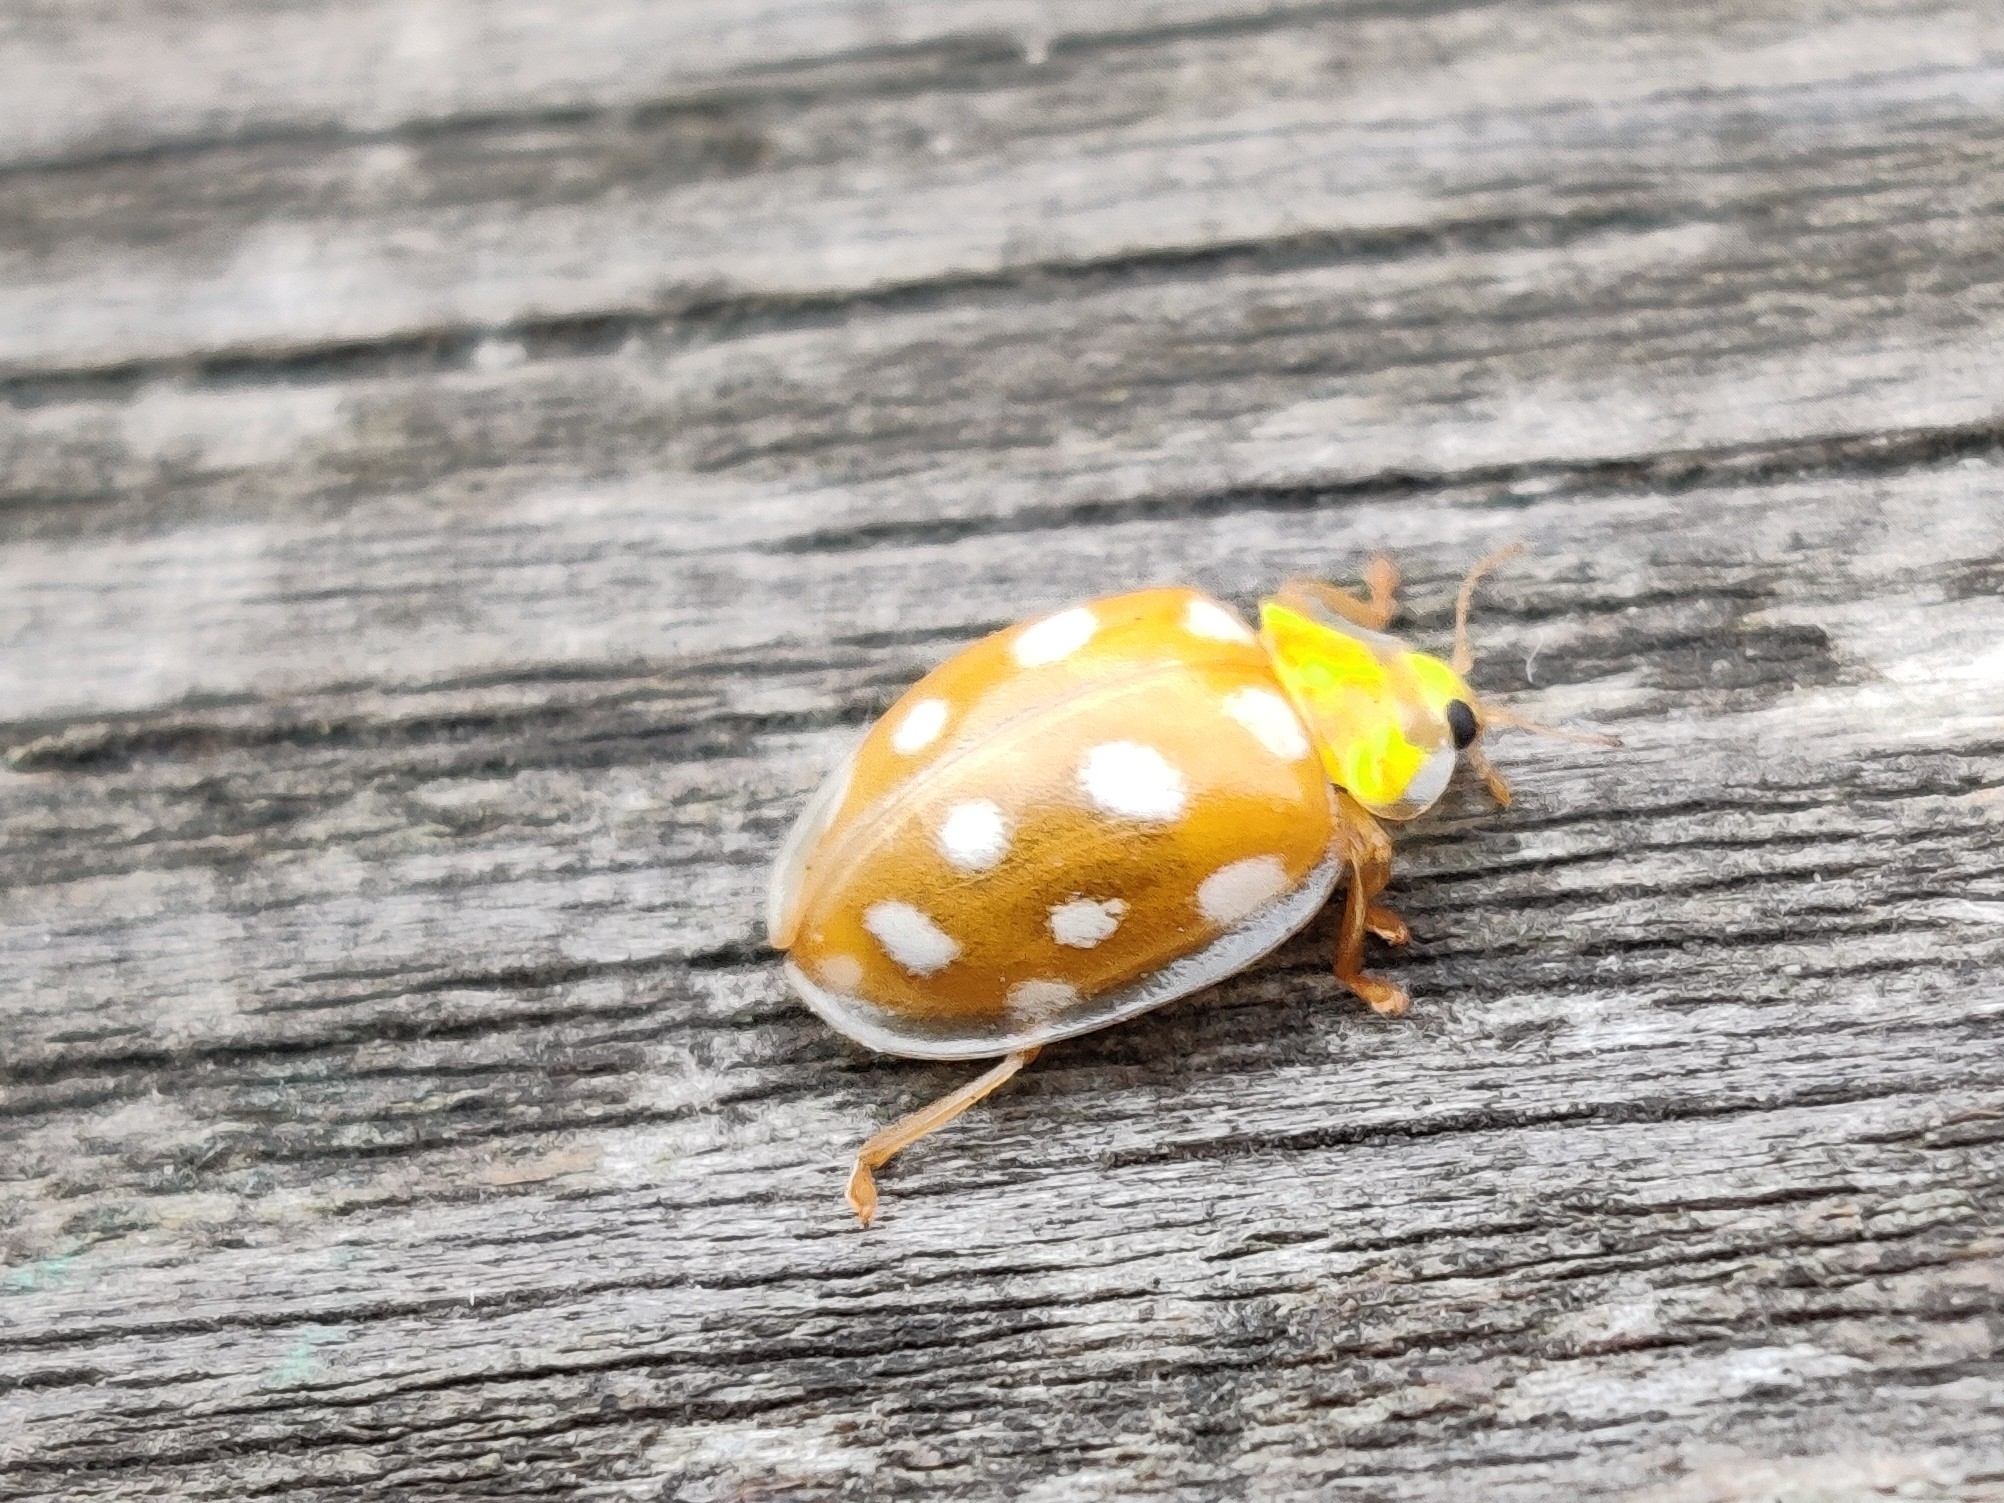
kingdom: Animalia
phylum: Arthropoda
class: Insecta
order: Coleoptera
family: Coccinellidae
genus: Halyzia
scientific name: Halyzia sedecimguttata
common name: Orange ladybird
